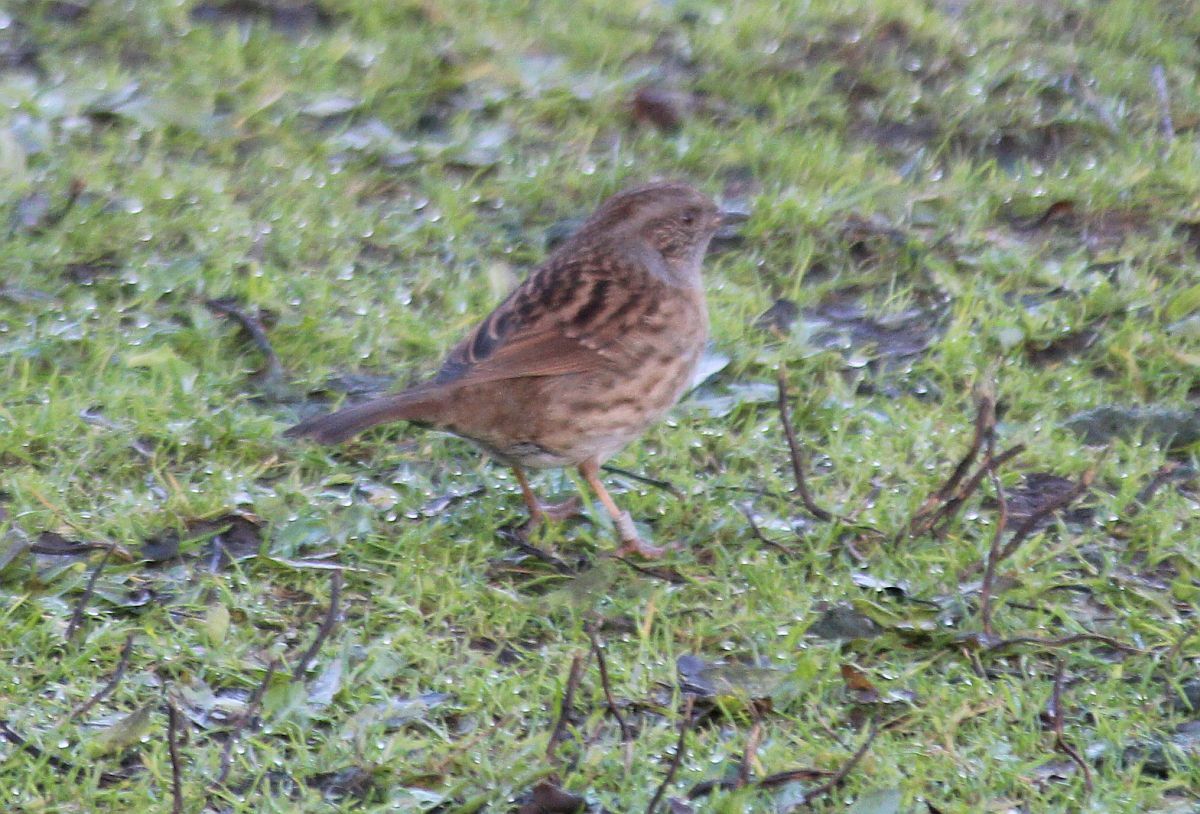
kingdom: Animalia
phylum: Chordata
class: Aves
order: Passeriformes
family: Prunellidae
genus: Prunella
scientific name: Prunella modularis
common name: Dunnock
